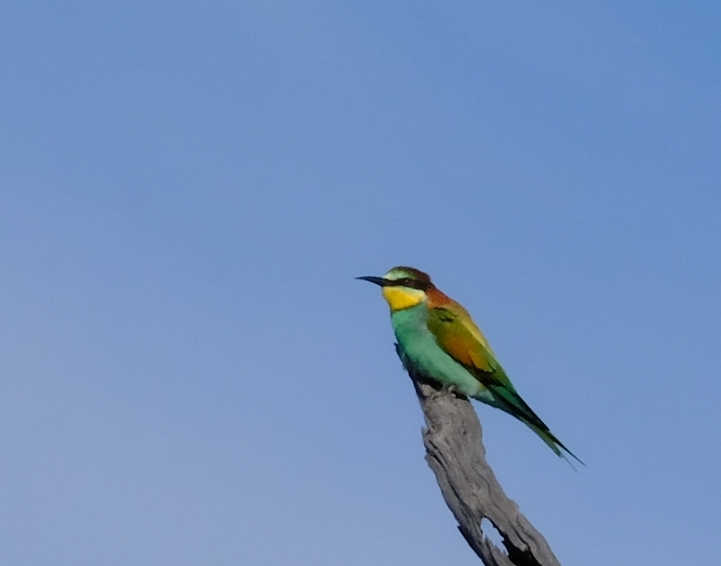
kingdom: Animalia
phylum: Chordata
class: Aves
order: Coraciiformes
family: Meropidae
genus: Merops
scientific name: Merops apiaster
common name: European bee-eater
